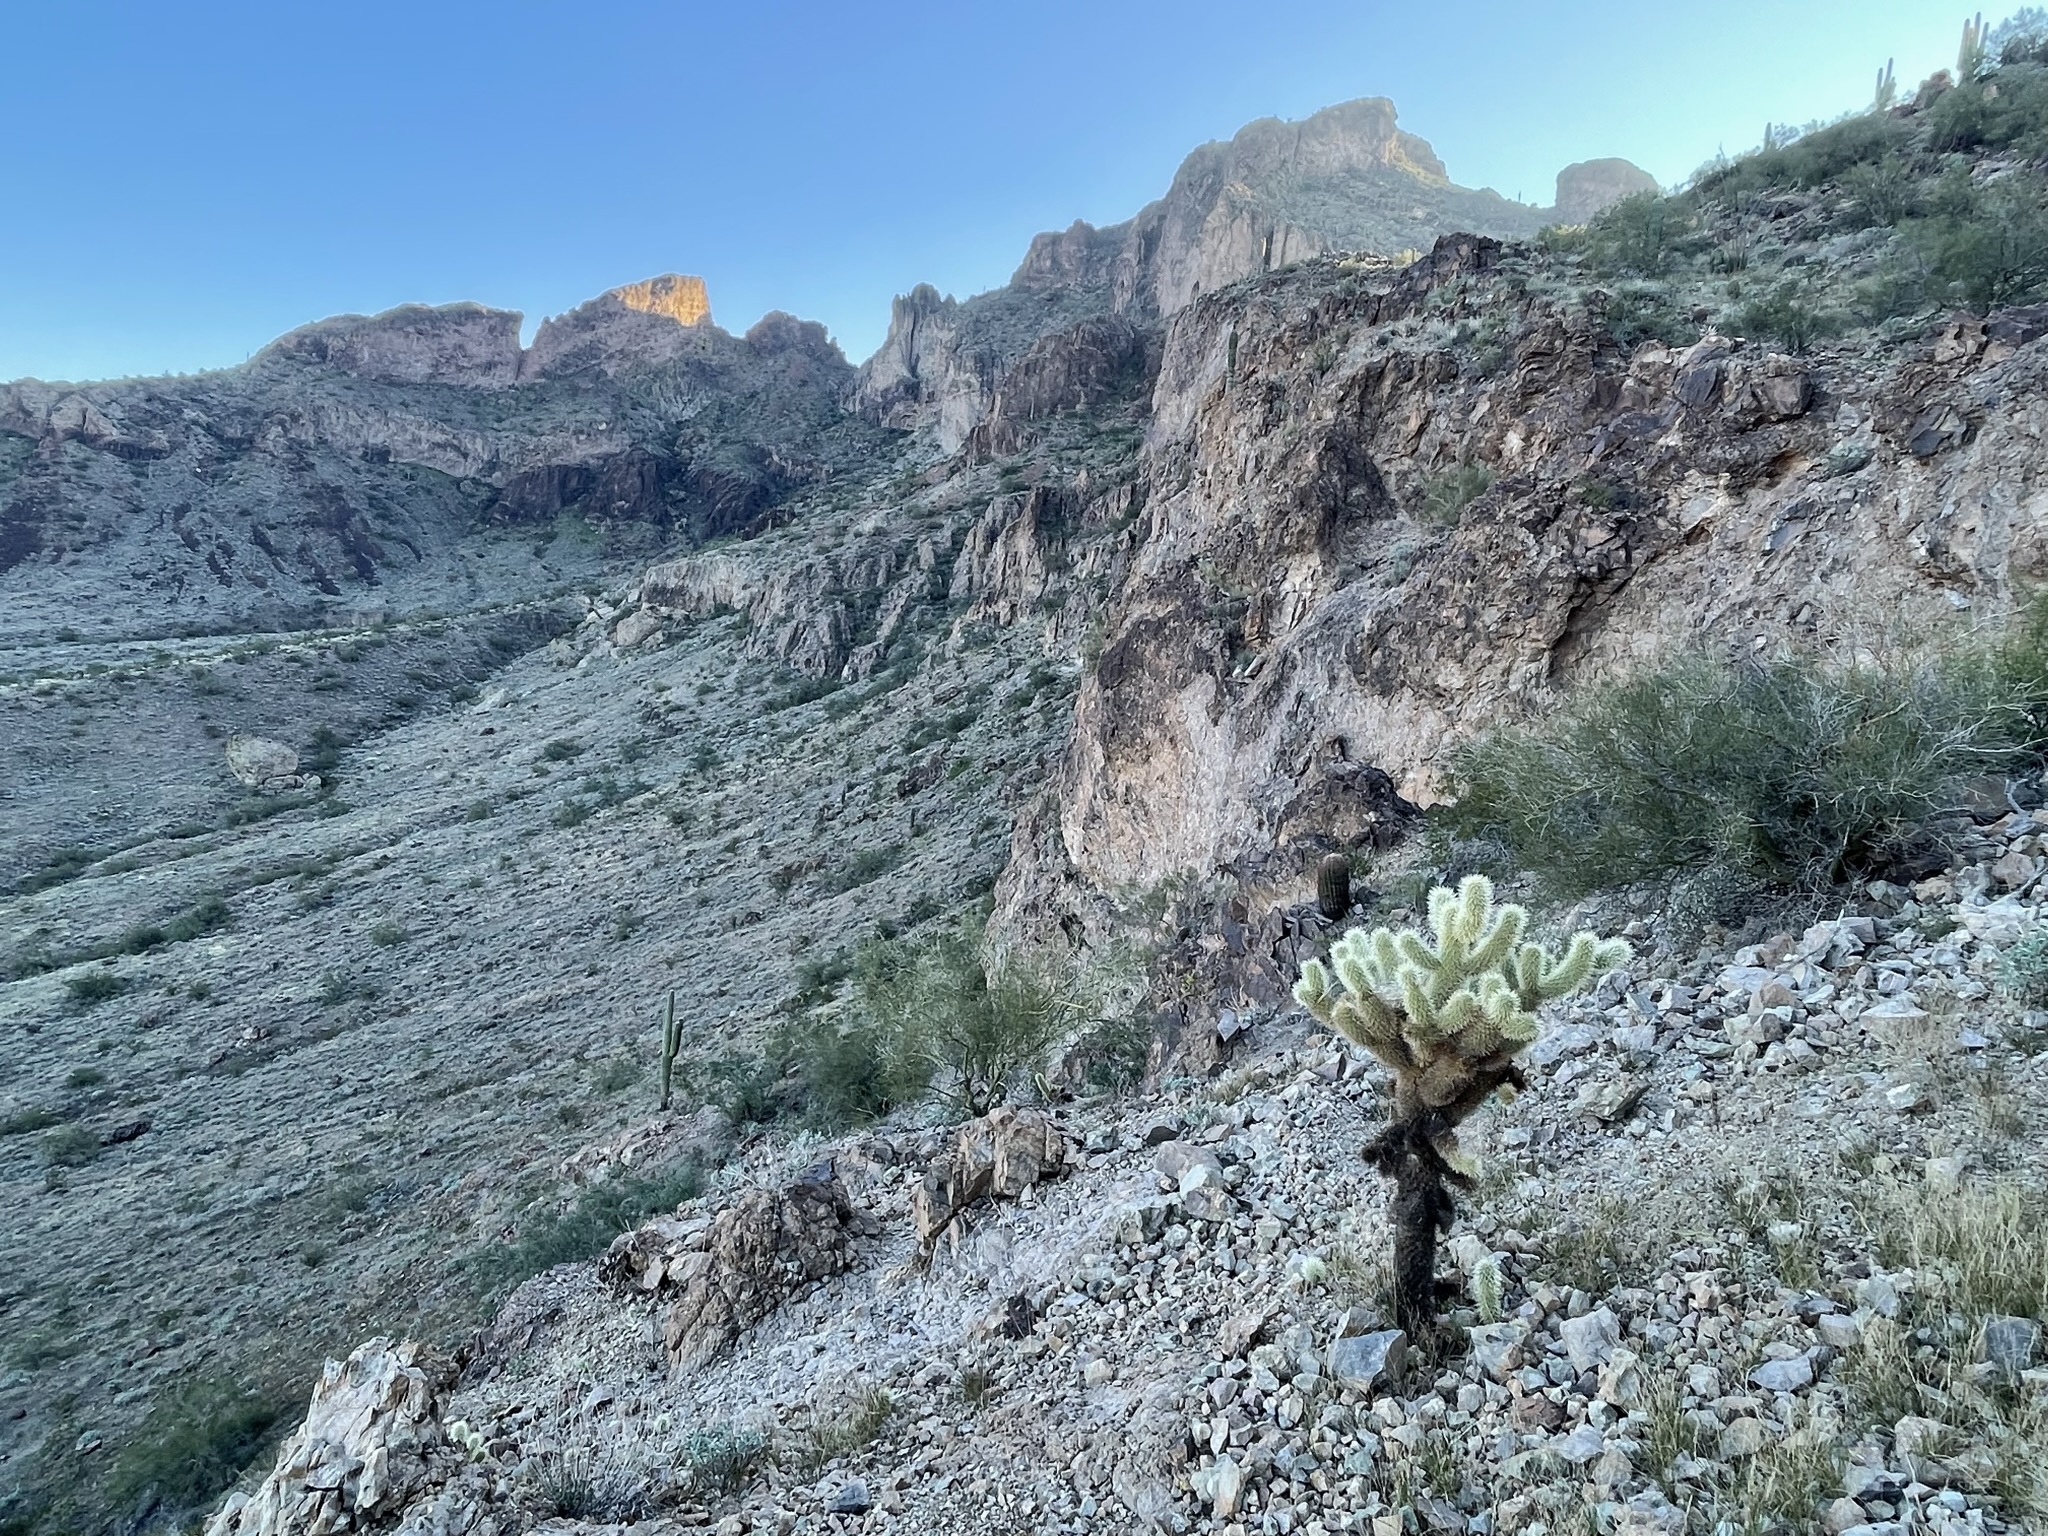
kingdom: Plantae
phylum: Tracheophyta
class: Magnoliopsida
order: Caryophyllales
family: Cactaceae
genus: Cylindropuntia
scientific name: Cylindropuntia fosbergii
